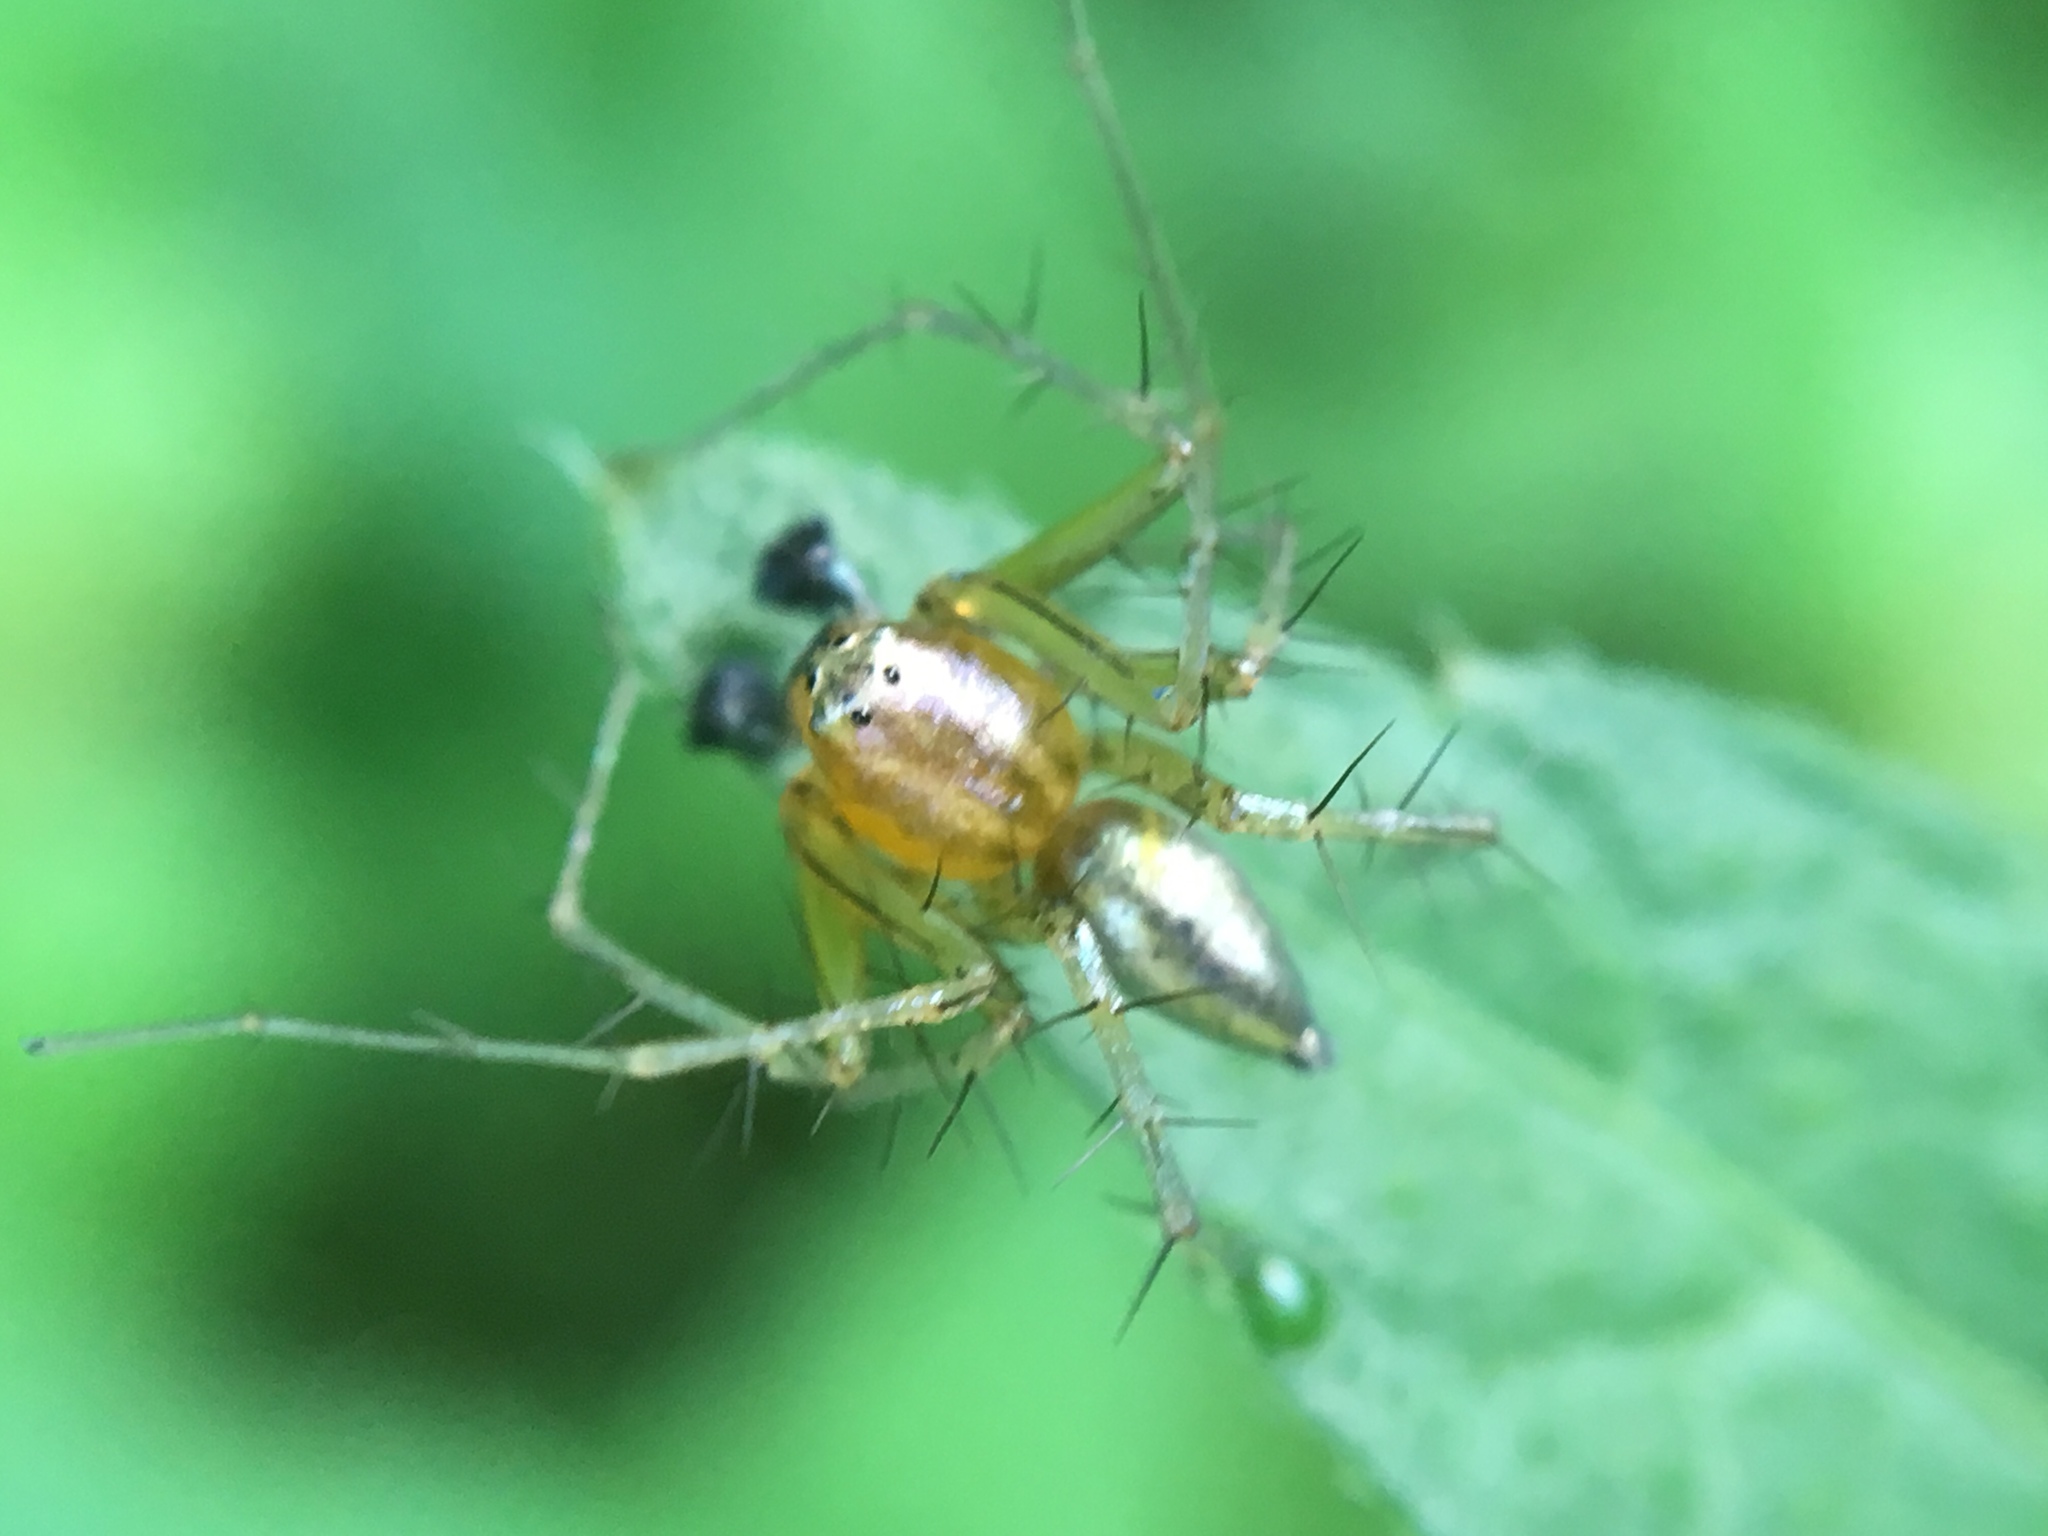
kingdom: Animalia
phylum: Arthropoda
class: Arachnida
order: Araneae
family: Oxyopidae
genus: Oxyopes
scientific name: Oxyopes salticus
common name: Lynx spiders
